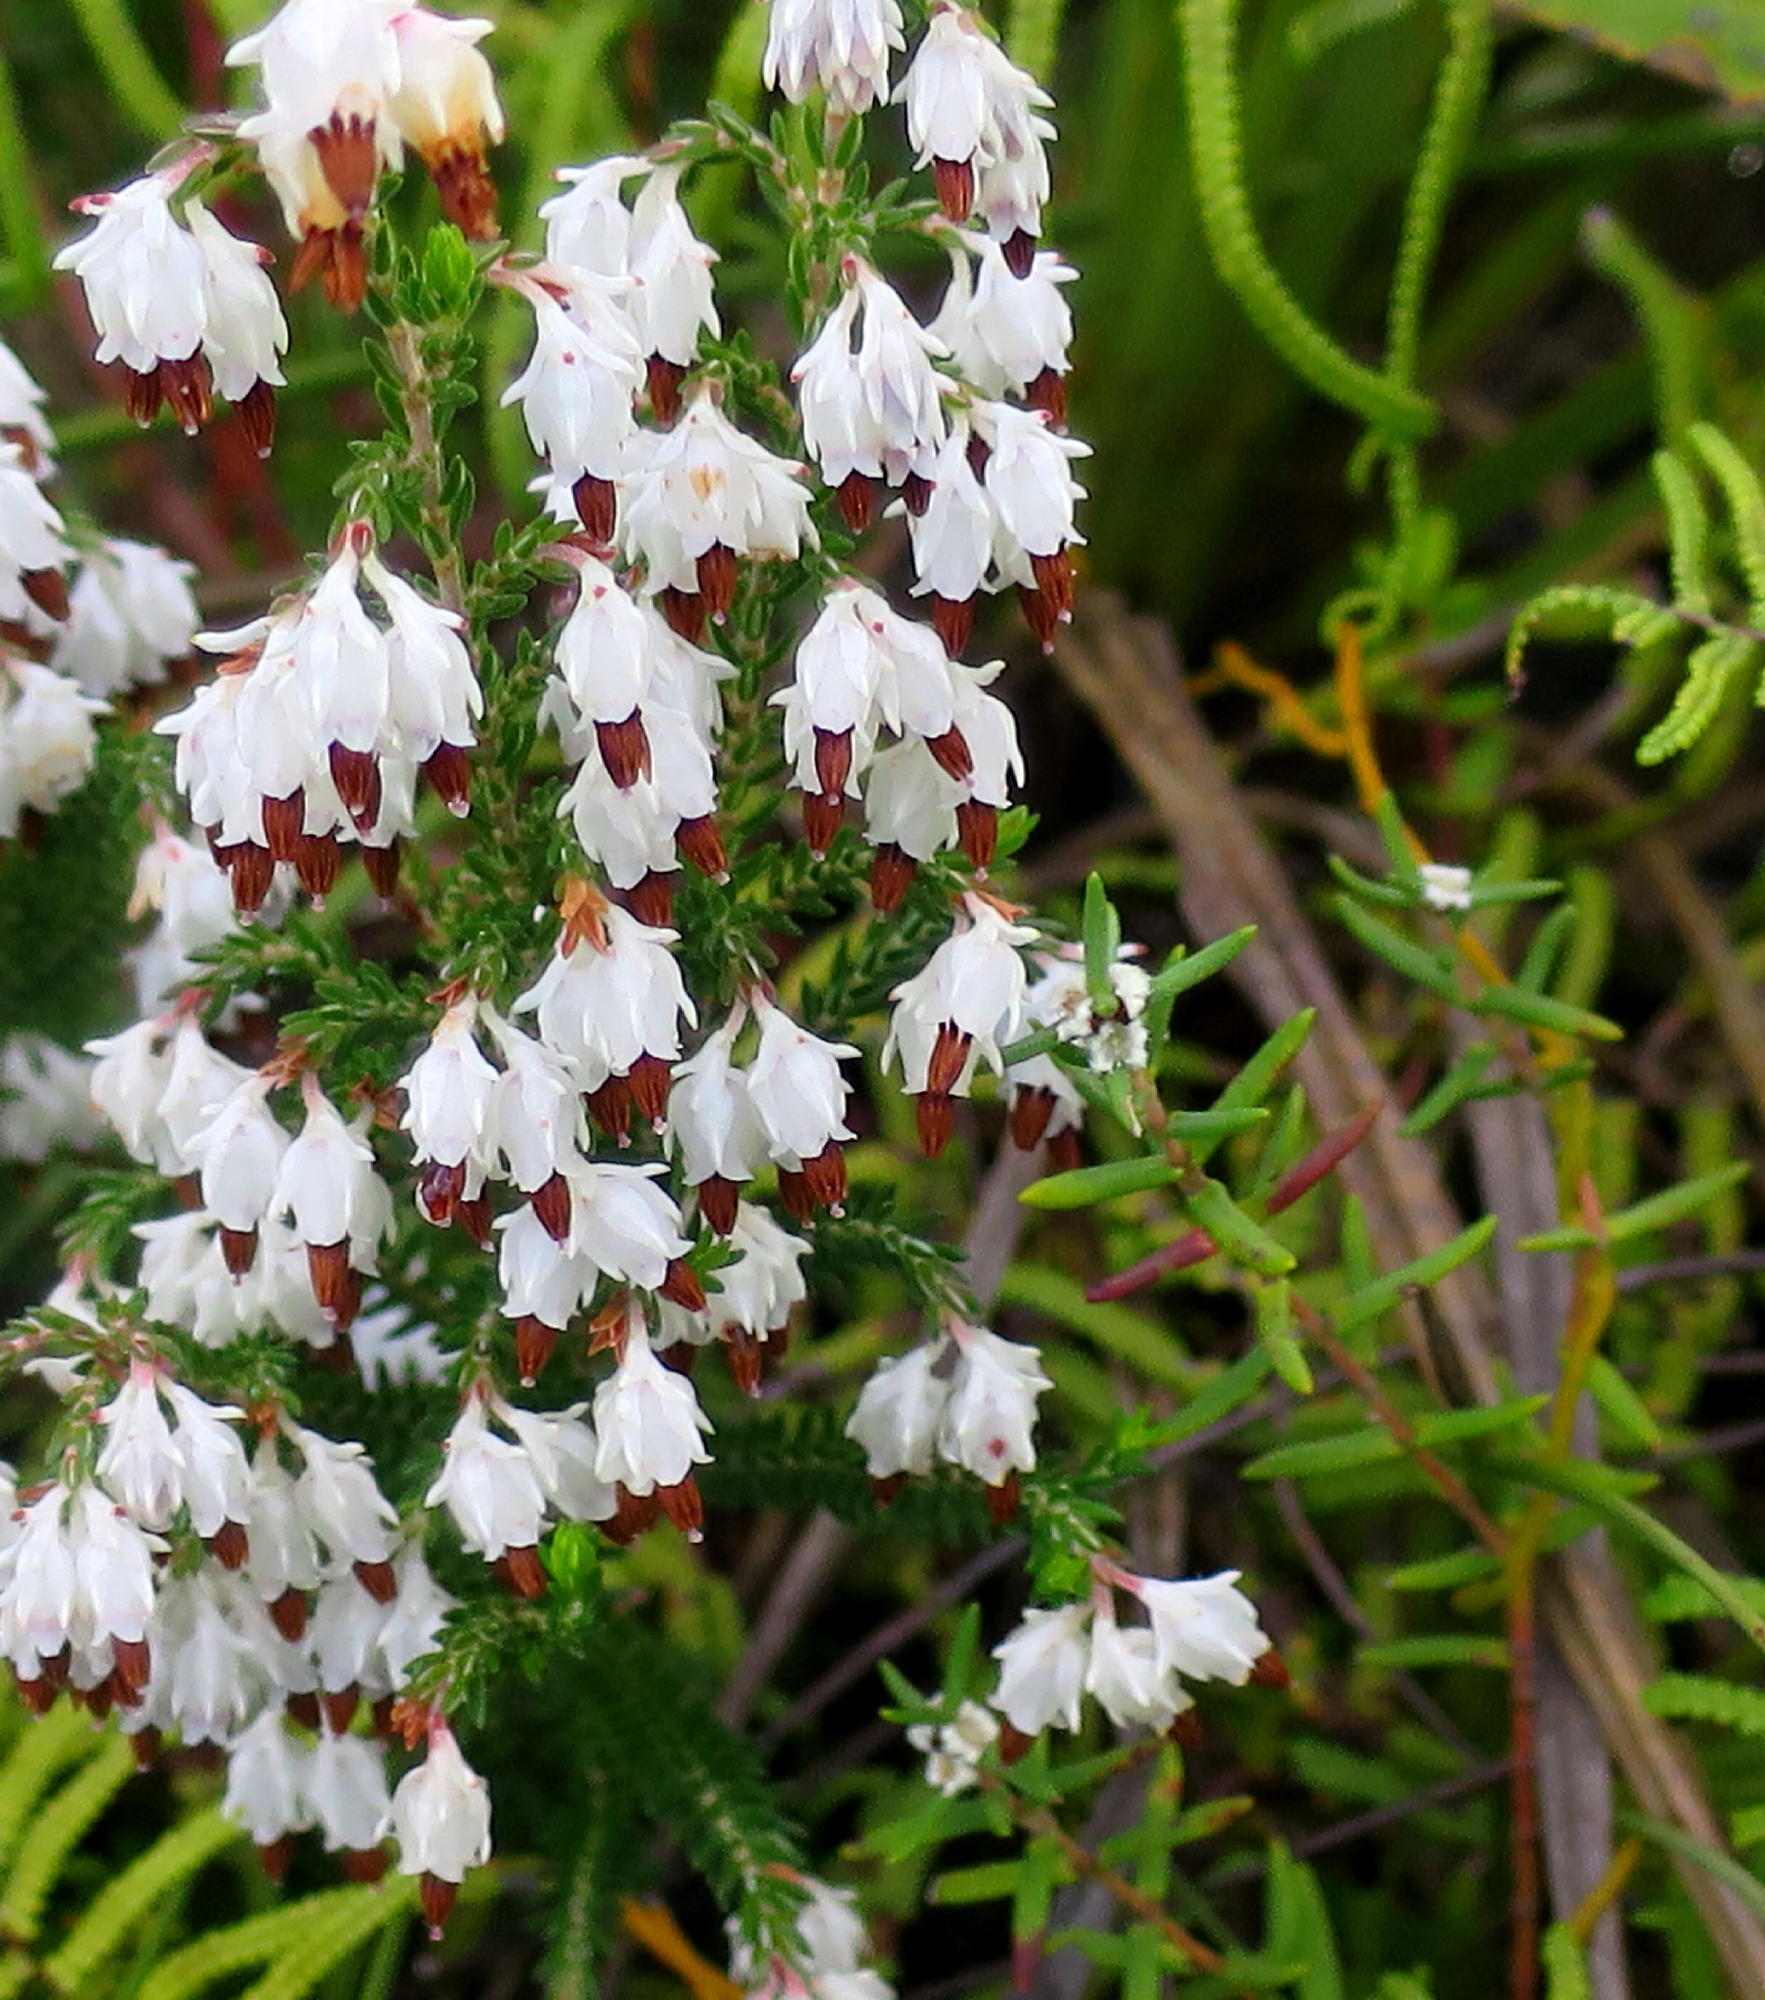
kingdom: Plantae
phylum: Tracheophyta
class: Magnoliopsida
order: Ericales
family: Ericaceae
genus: Erica
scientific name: Erica triceps
